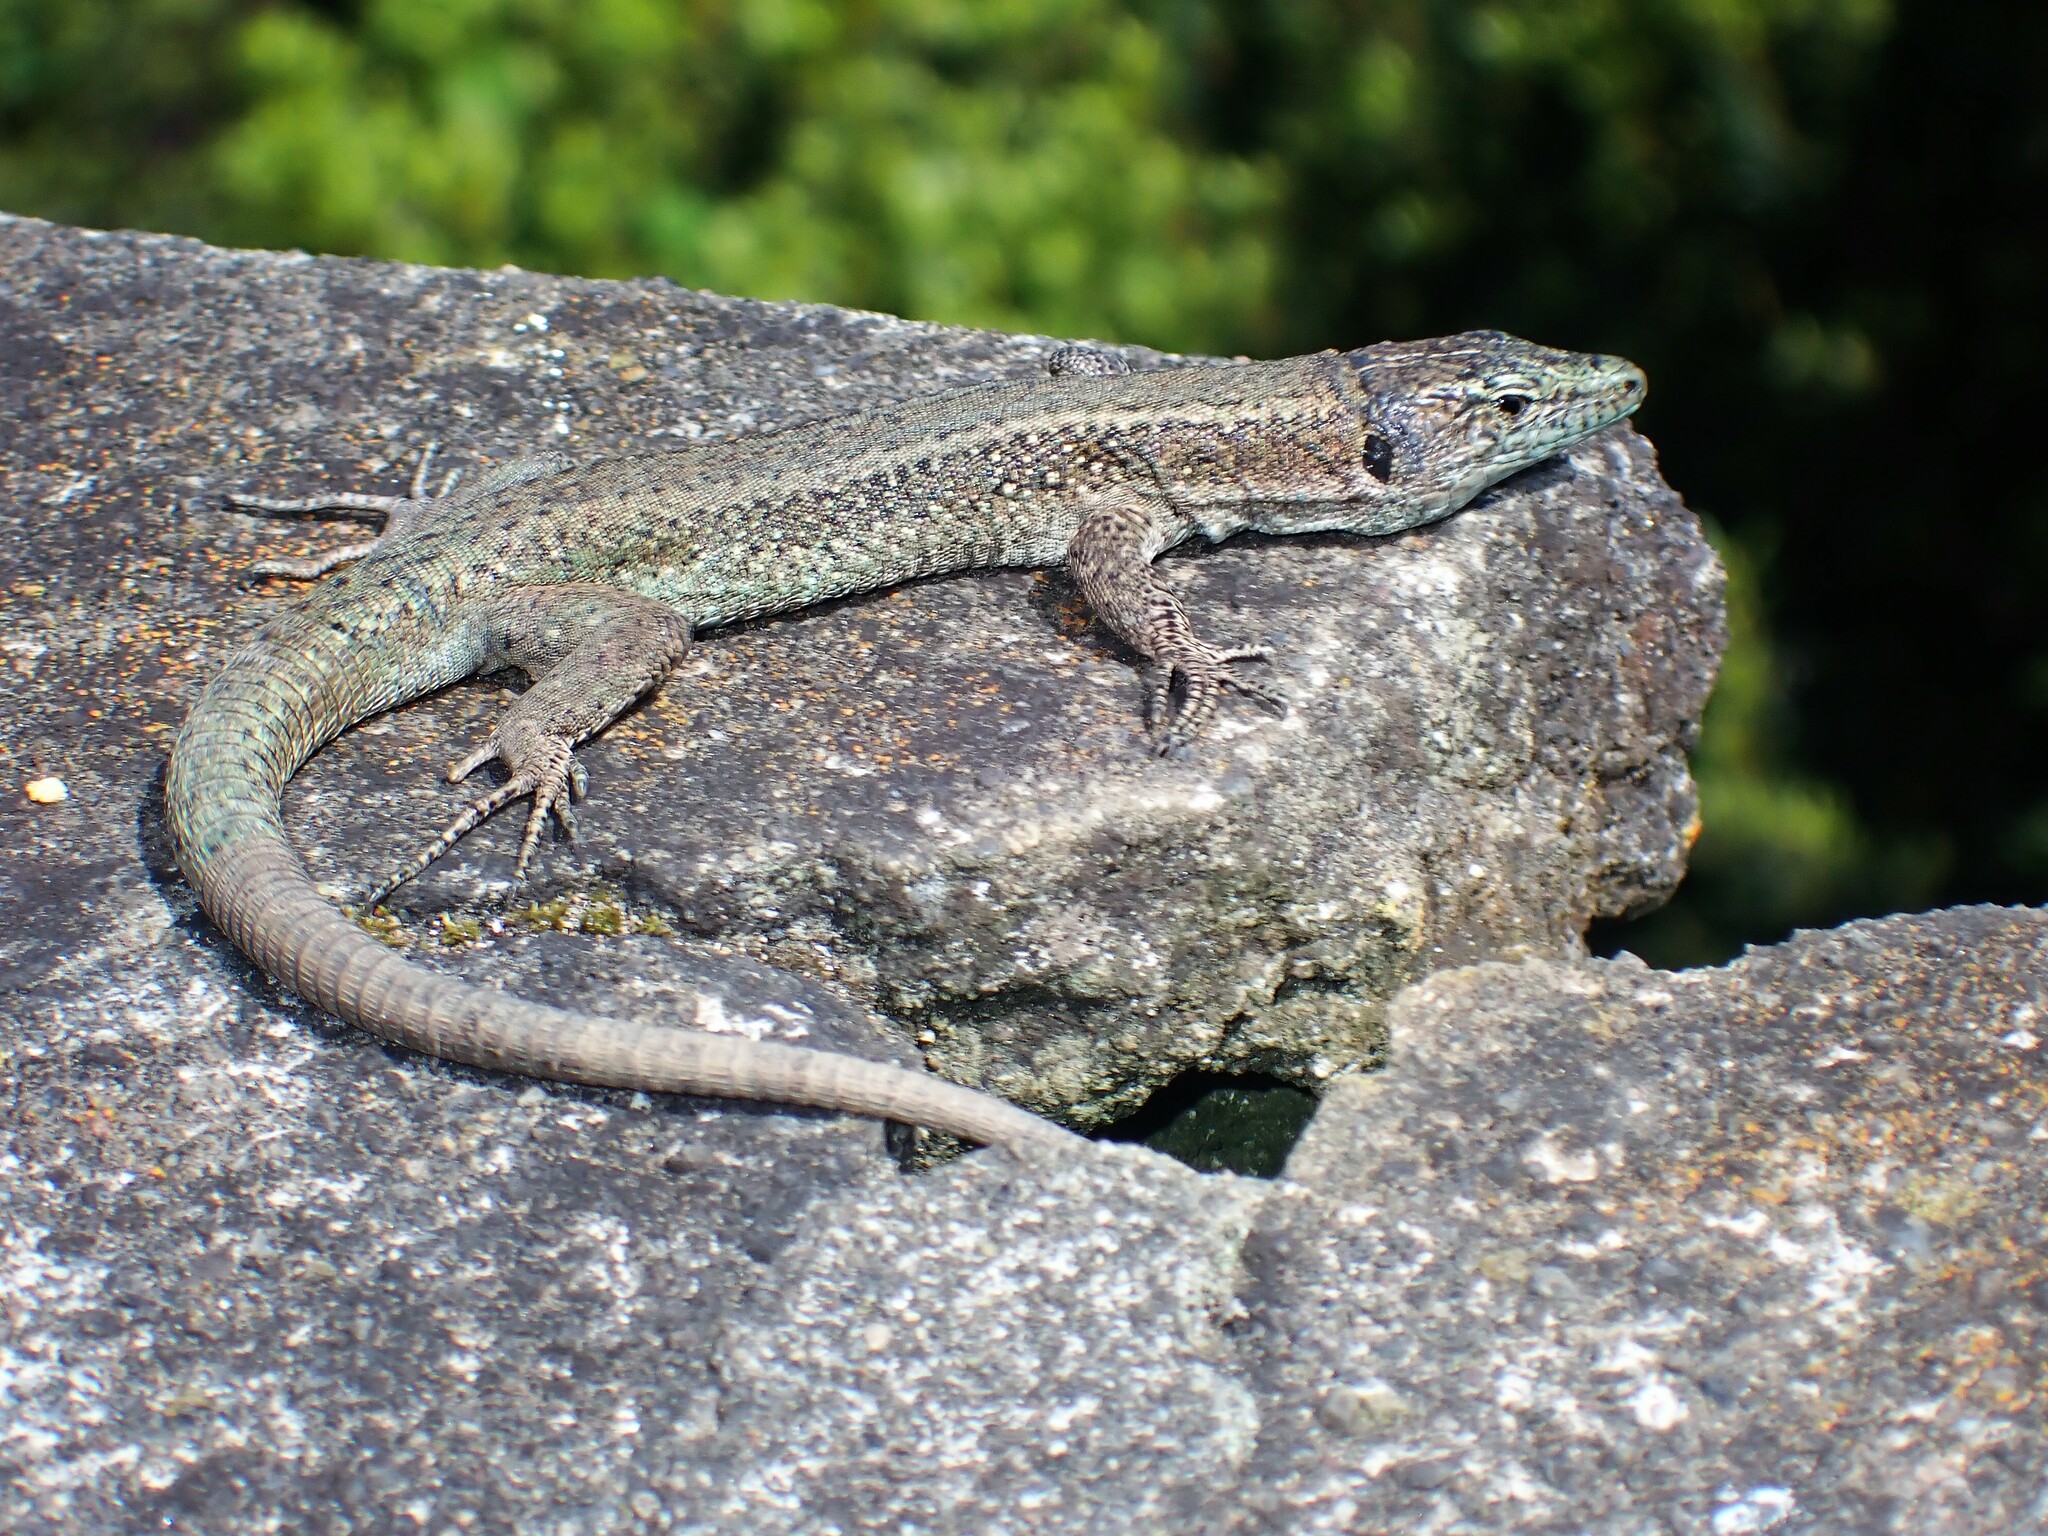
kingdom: Animalia
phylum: Chordata
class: Squamata
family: Lacertidae
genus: Teira
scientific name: Teira dugesii
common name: Madeira lizard
